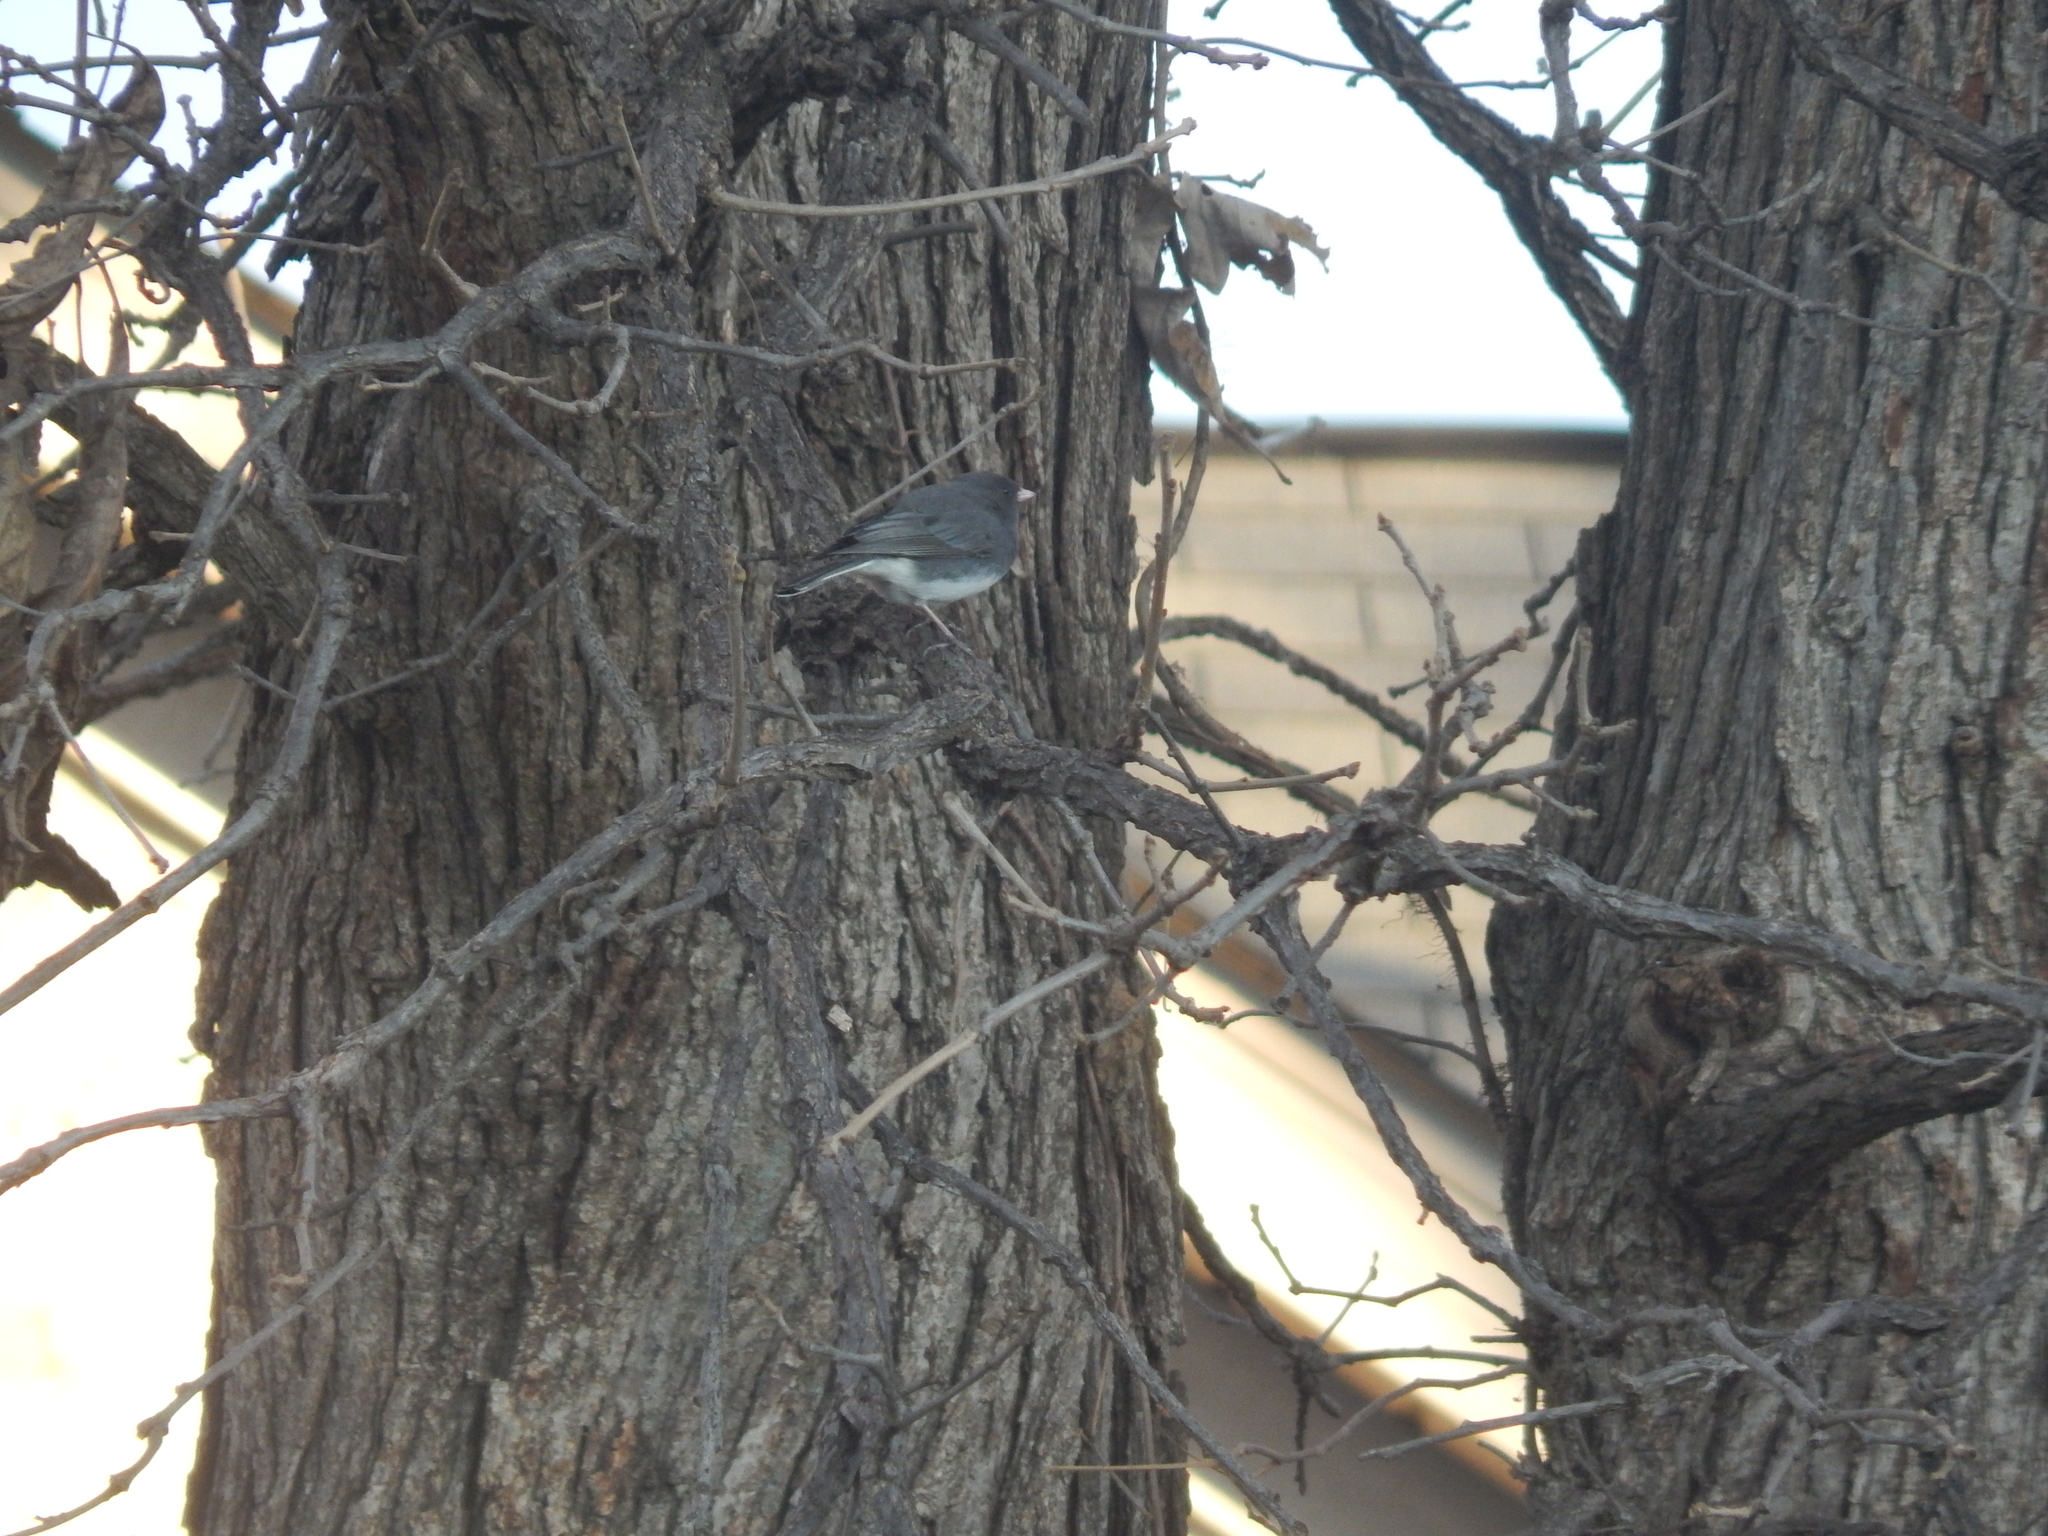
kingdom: Animalia
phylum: Chordata
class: Aves
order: Passeriformes
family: Passerellidae
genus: Junco
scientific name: Junco hyemalis
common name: Dark-eyed junco
